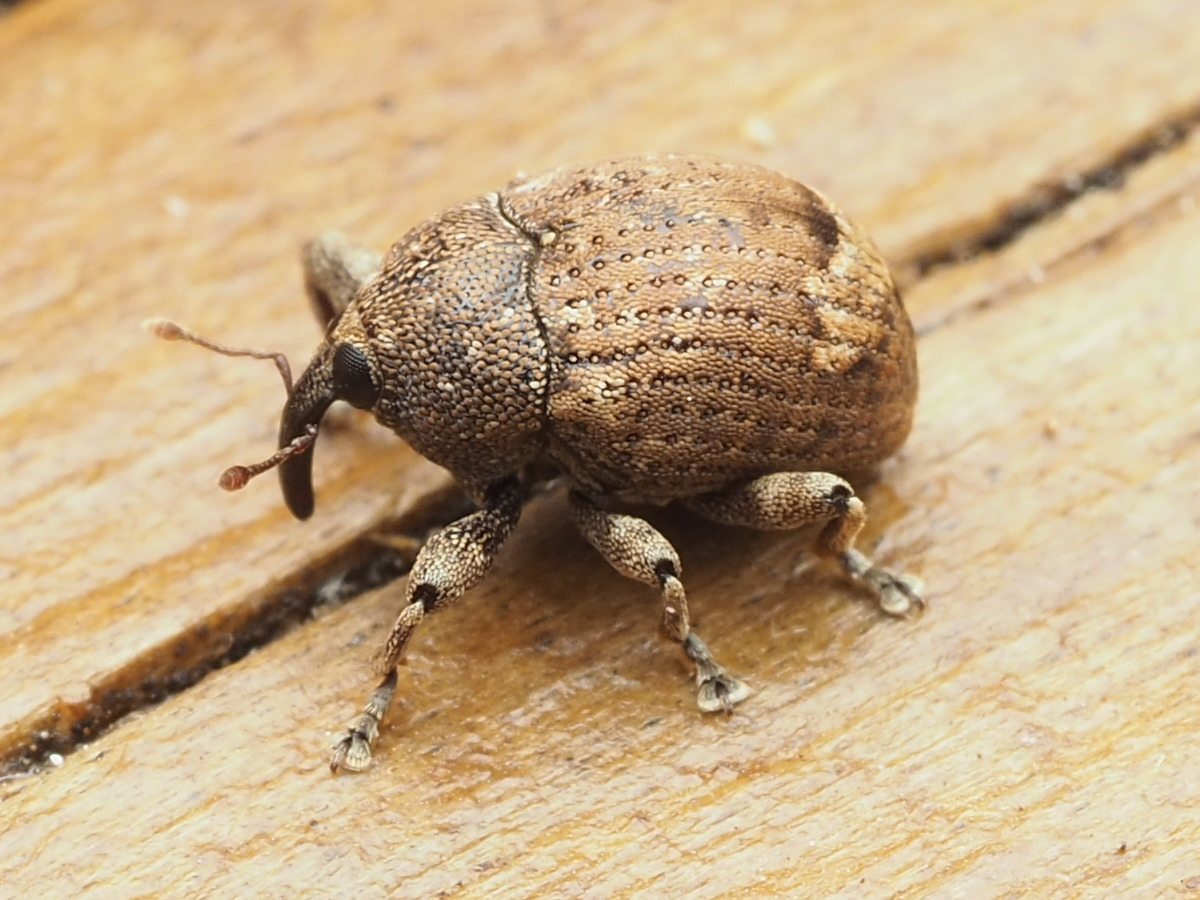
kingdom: Animalia
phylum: Arthropoda
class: Insecta
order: Coleoptera
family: Curculionidae
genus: Pseudomopsis
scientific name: Pseudomopsis inflatus
